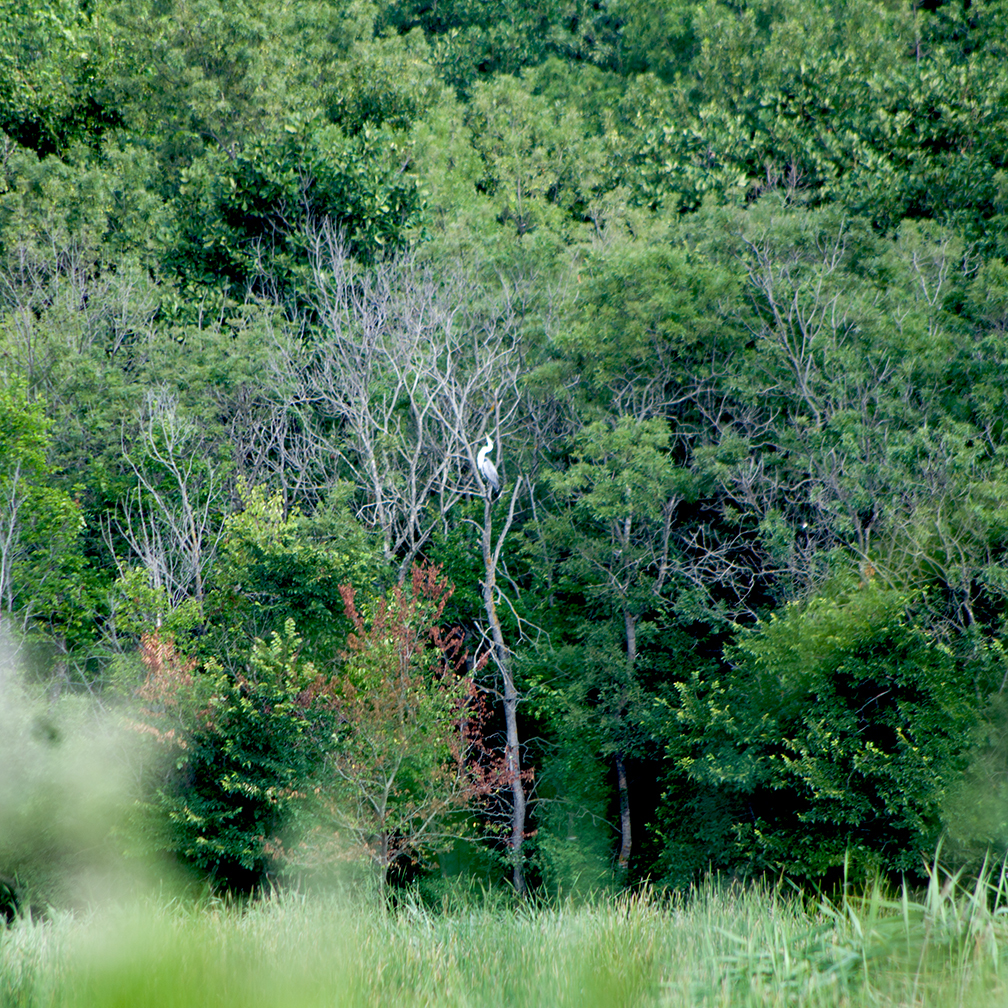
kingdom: Animalia
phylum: Chordata
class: Aves
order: Pelecaniformes
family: Ardeidae
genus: Ardea
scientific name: Ardea cinerea
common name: Grey heron
